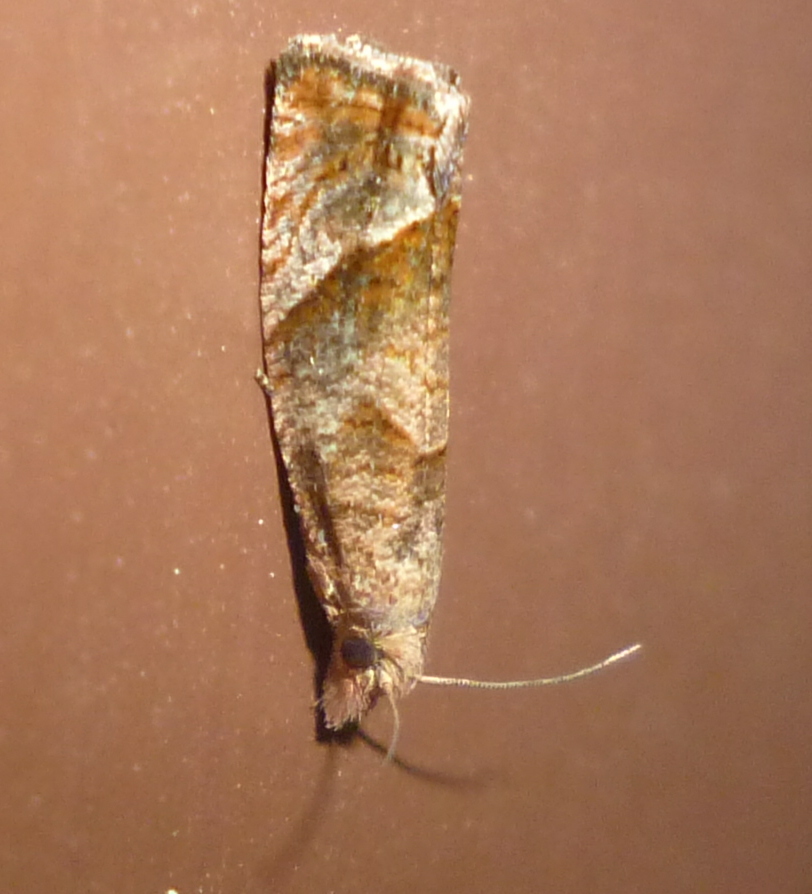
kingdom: Animalia
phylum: Arthropoda
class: Insecta
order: Lepidoptera
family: Tortricidae
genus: Pelochrista
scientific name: Pelochrista derelicta
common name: Derelict pelochrista moth
